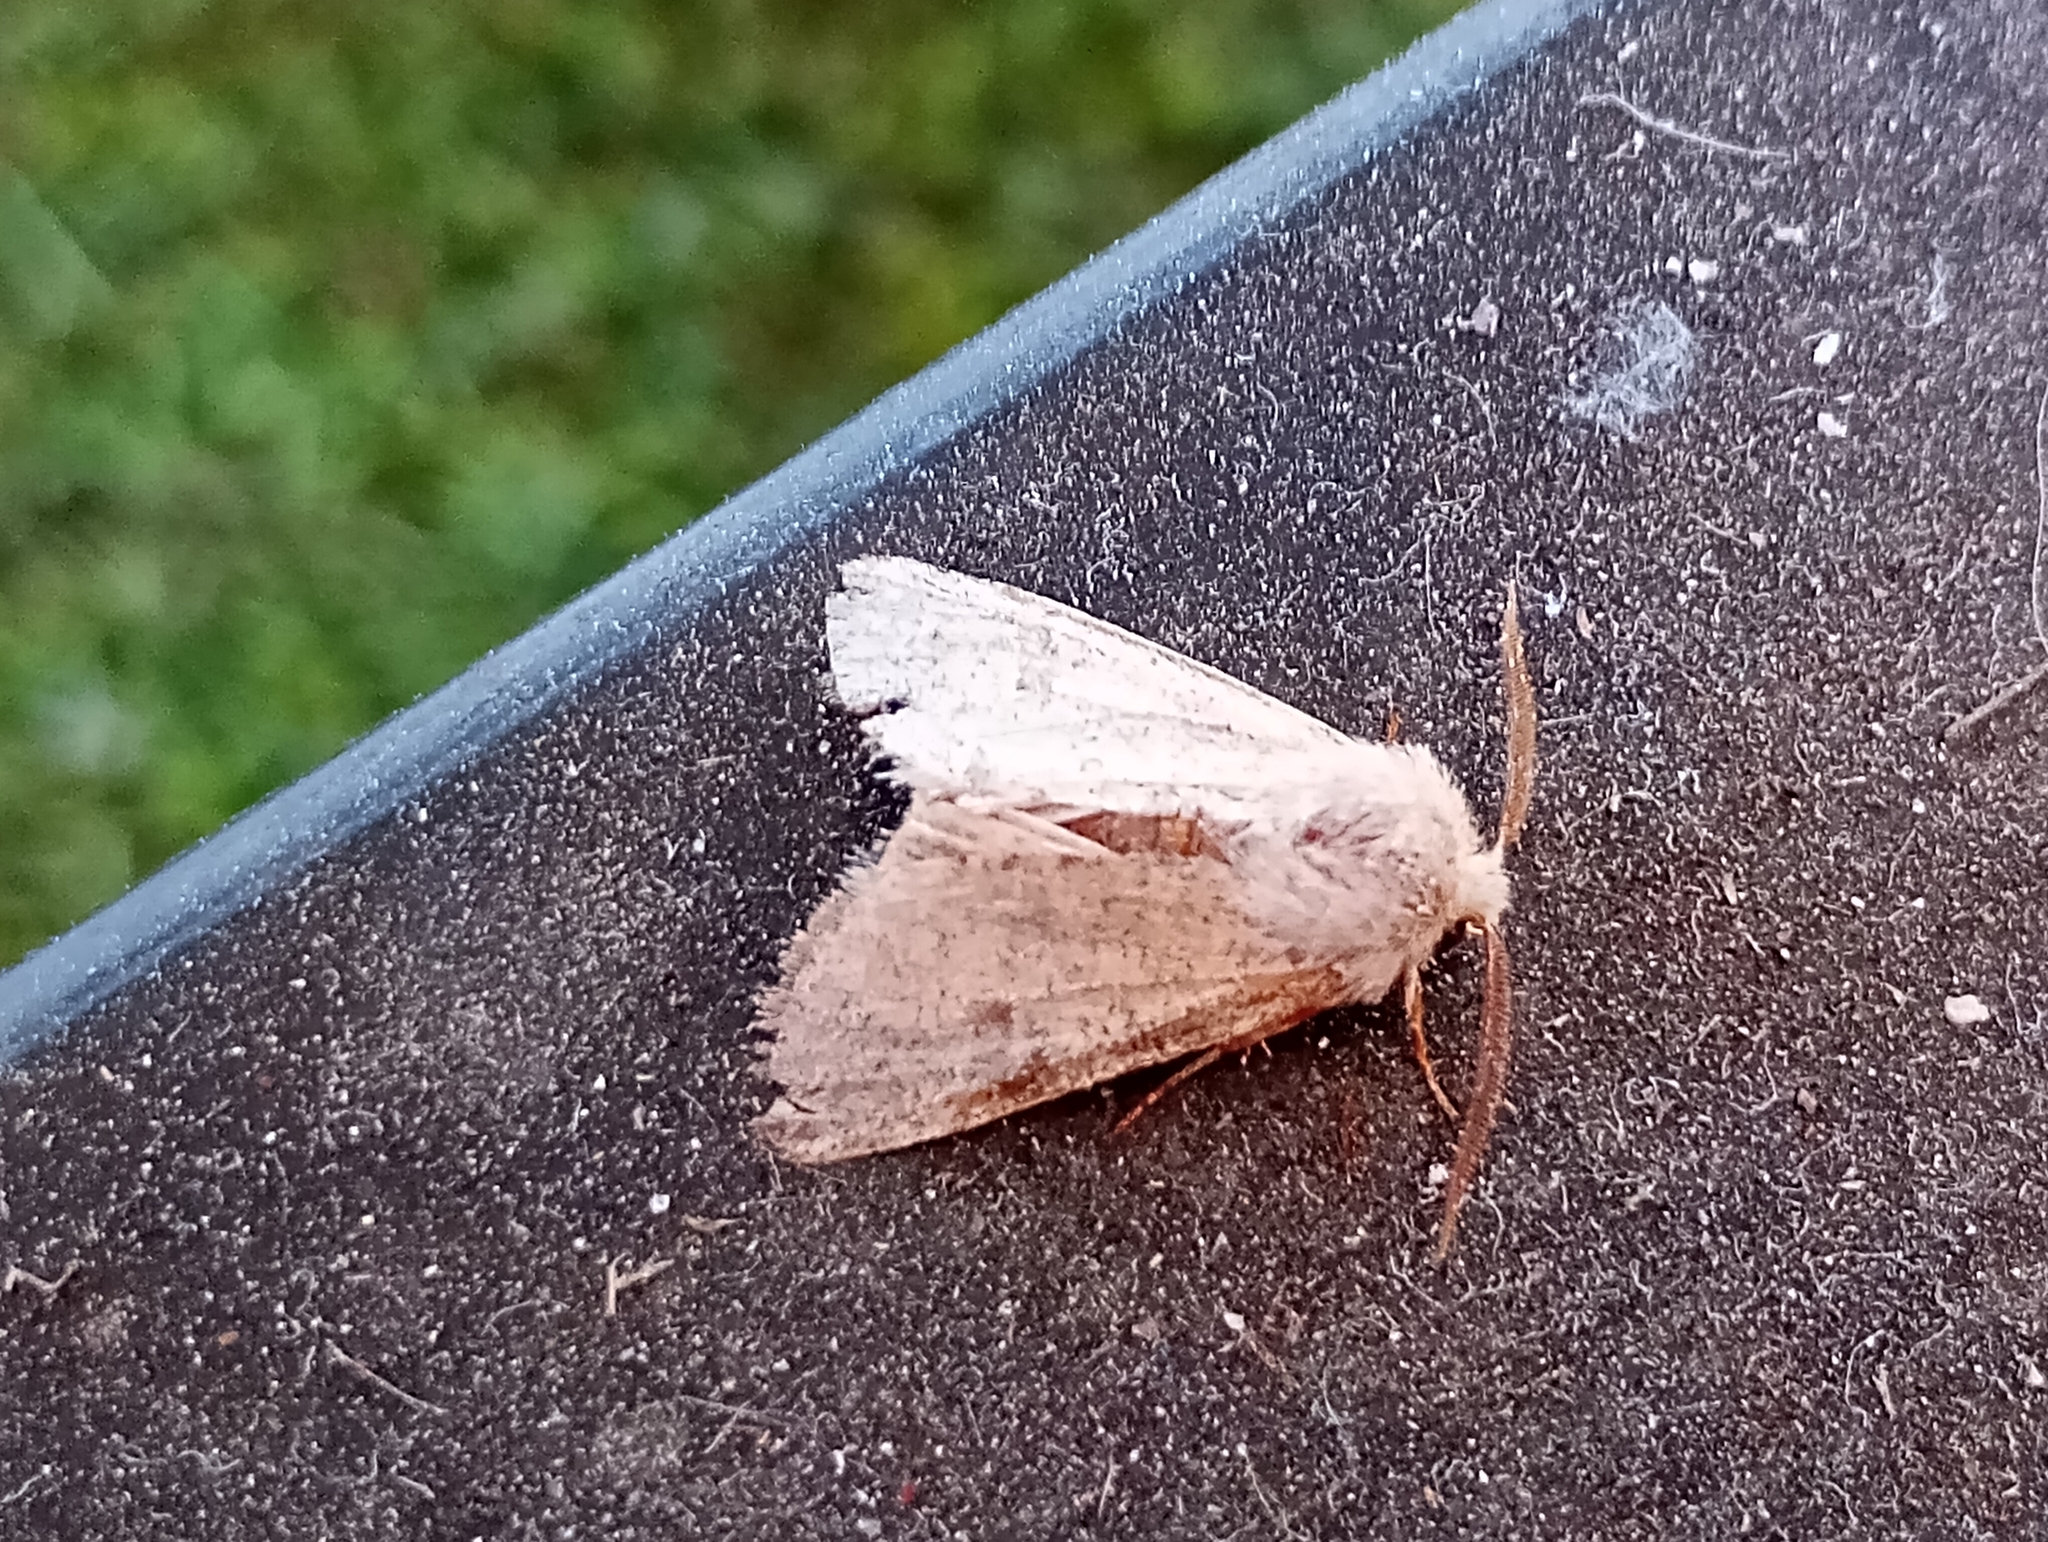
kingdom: Animalia
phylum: Arthropoda
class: Insecta
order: Lepidoptera
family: Noctuidae
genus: Orthosia
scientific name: Orthosia cruda
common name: Small quaker
